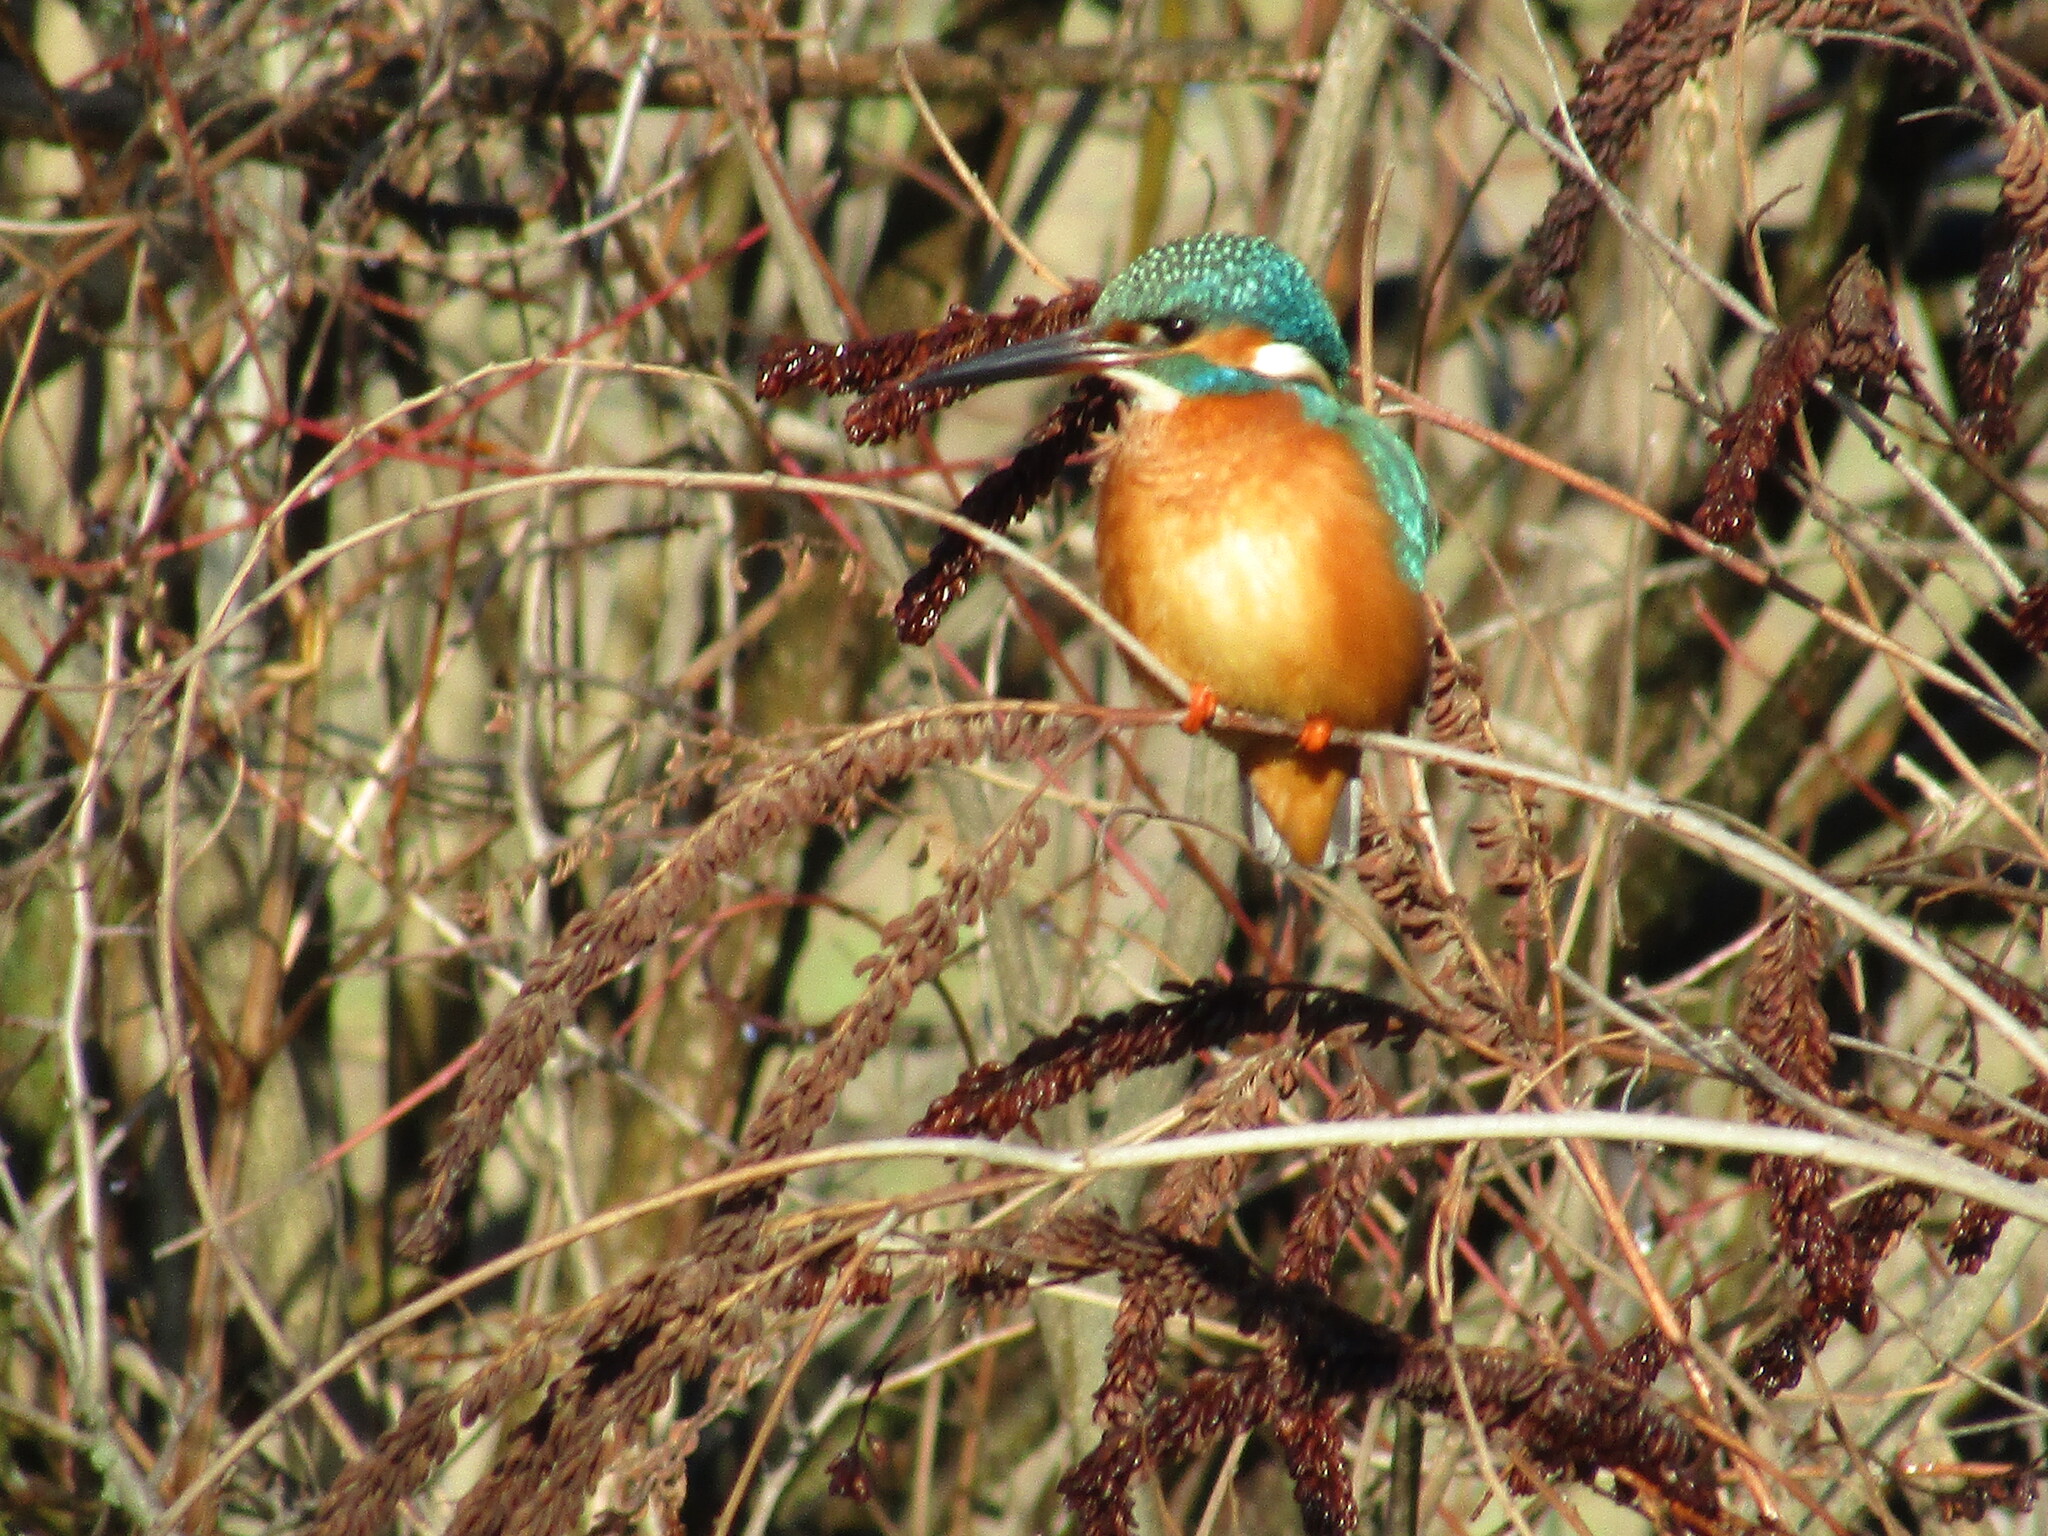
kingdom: Animalia
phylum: Chordata
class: Aves
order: Coraciiformes
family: Alcedinidae
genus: Alcedo
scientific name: Alcedo atthis
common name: Common kingfisher
